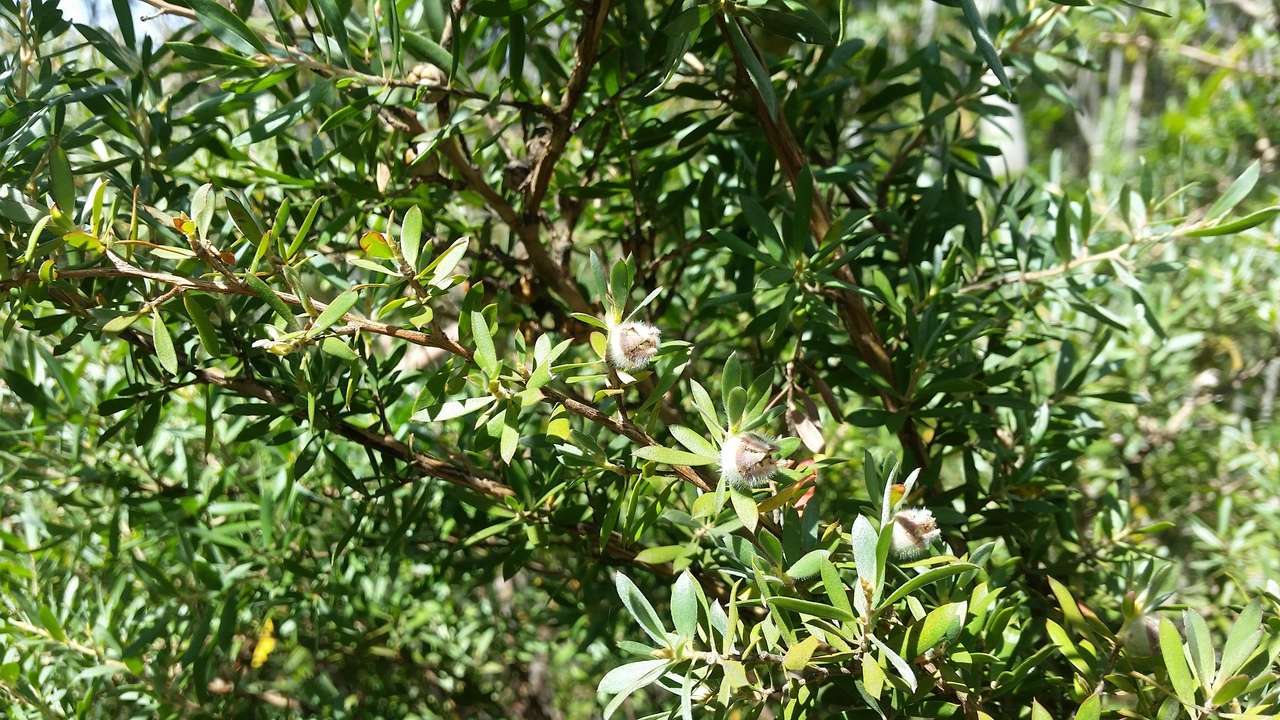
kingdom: Plantae
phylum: Tracheophyta
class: Magnoliopsida
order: Myrtales
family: Myrtaceae
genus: Leptospermum
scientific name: Leptospermum grandifolium
